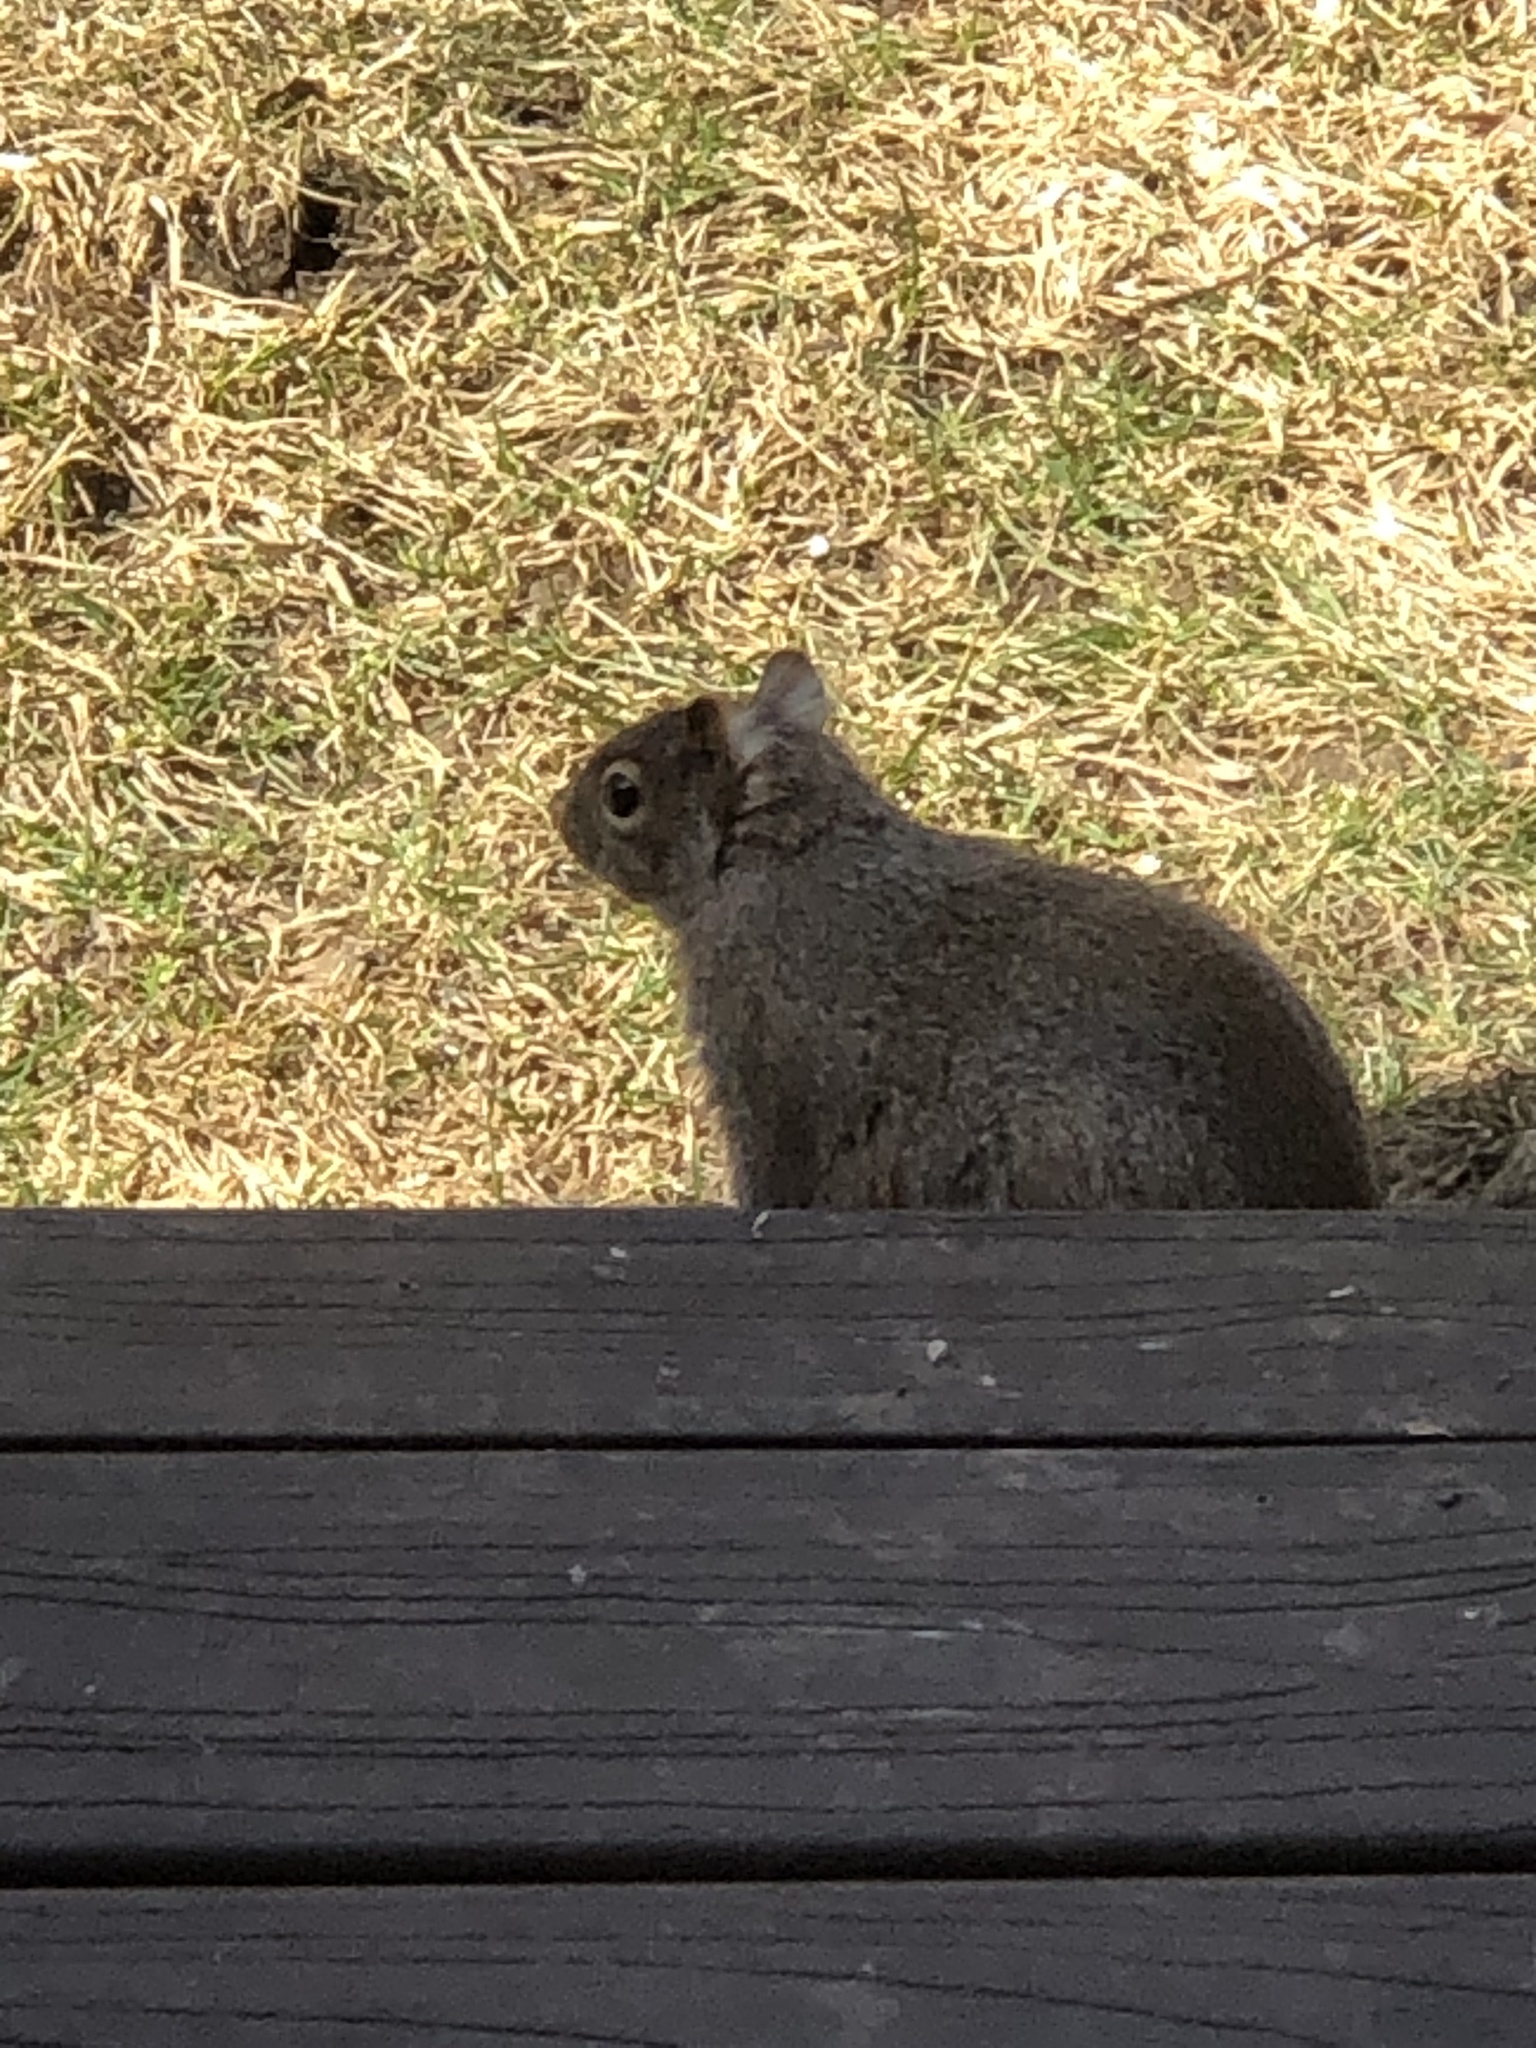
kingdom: Animalia
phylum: Chordata
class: Mammalia
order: Rodentia
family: Sciuridae
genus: Sciurus
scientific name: Sciurus carolinensis
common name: Eastern gray squirrel
